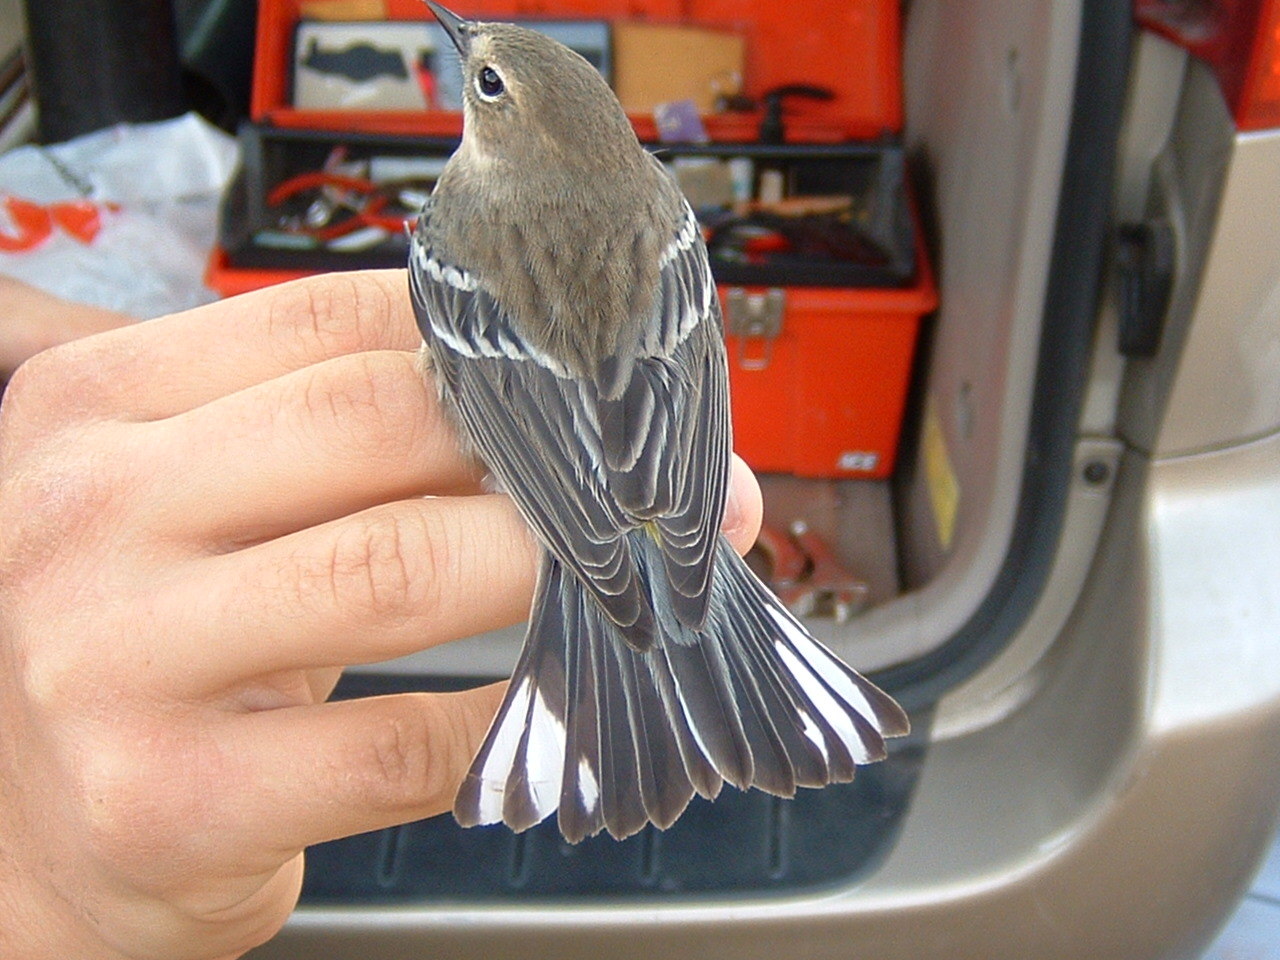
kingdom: Animalia
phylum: Chordata
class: Aves
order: Passeriformes
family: Parulidae
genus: Setophaga
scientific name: Setophaga coronata
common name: Myrtle warbler
